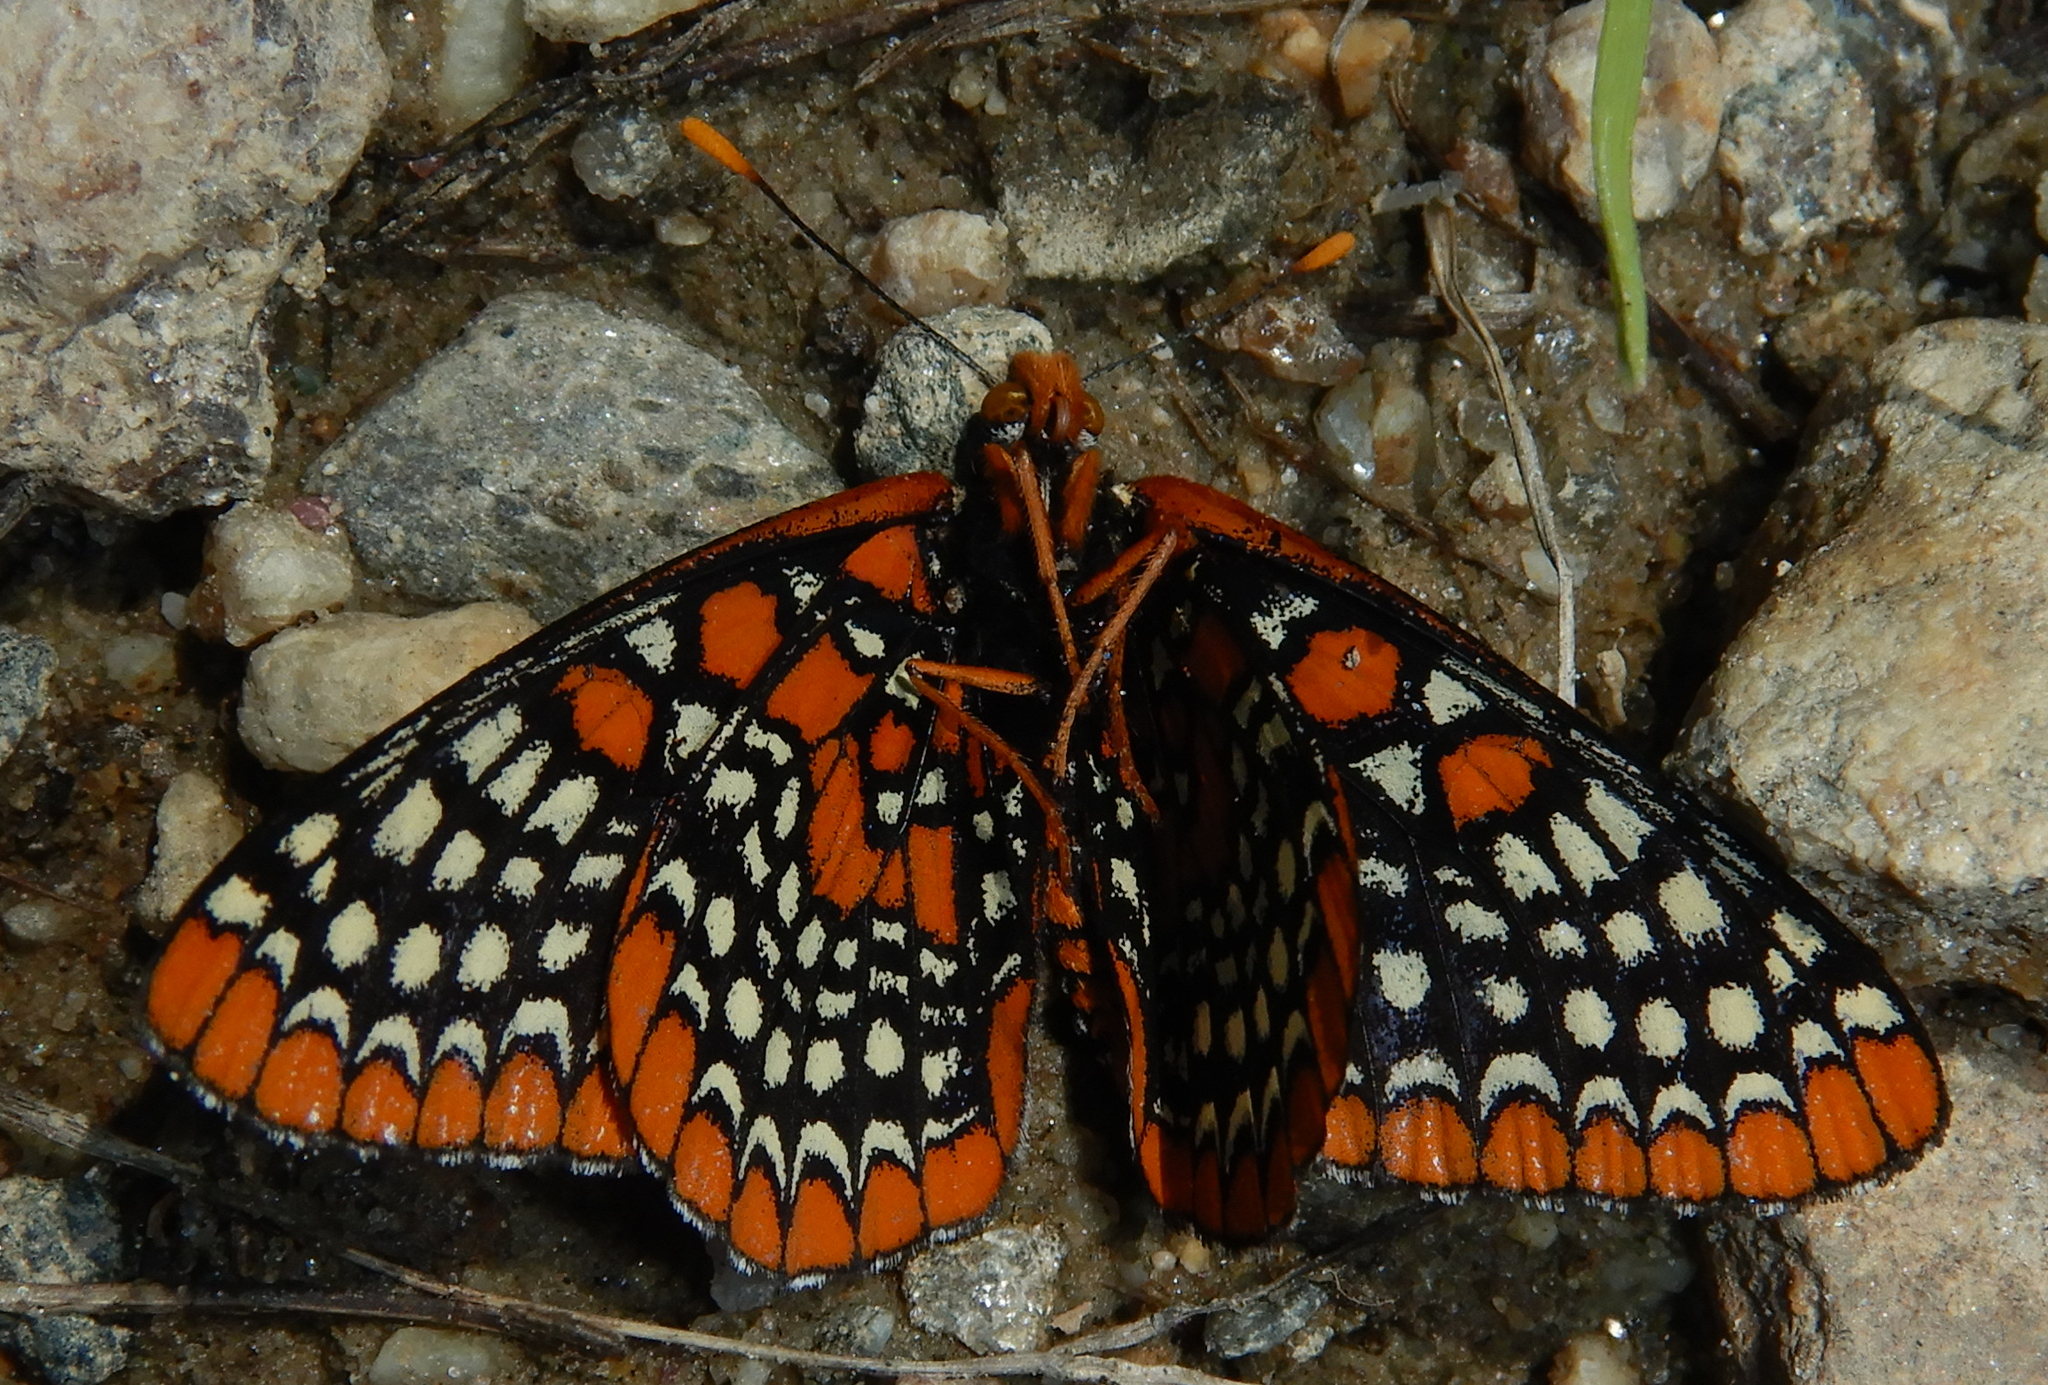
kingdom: Animalia
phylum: Arthropoda
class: Insecta
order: Lepidoptera
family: Nymphalidae
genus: Euphydryas
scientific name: Euphydryas phaeton
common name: Baltimore checkerspot
